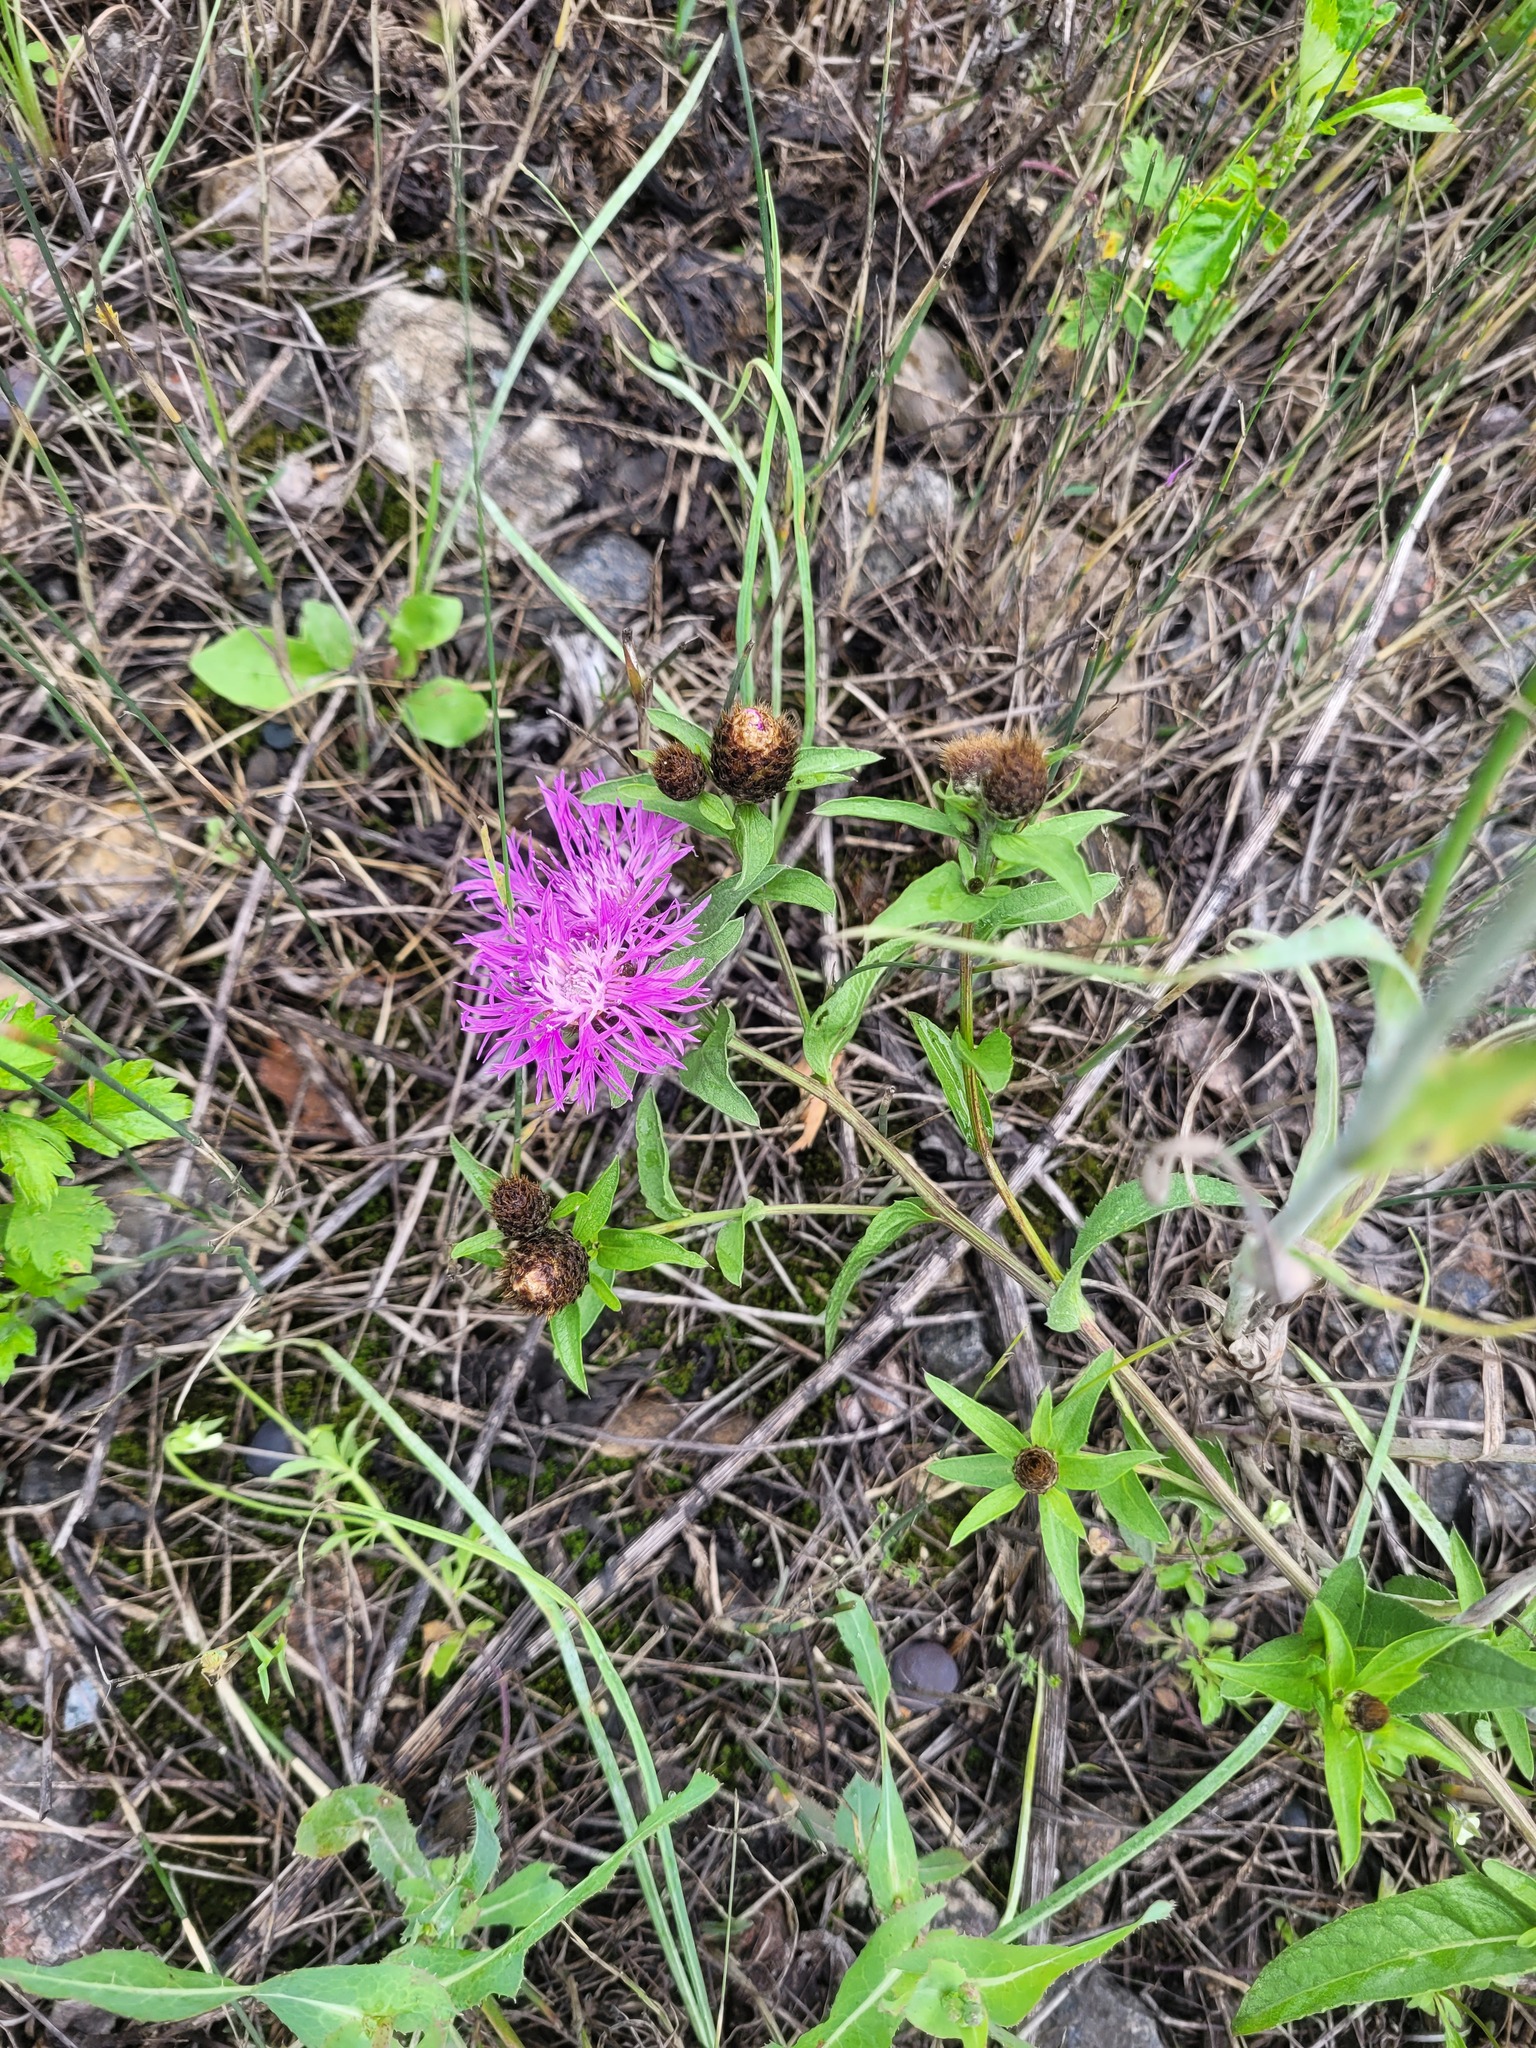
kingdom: Plantae
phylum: Tracheophyta
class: Magnoliopsida
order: Asterales
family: Asteraceae
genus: Centaurea
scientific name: Centaurea jacea
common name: Brown knapweed
